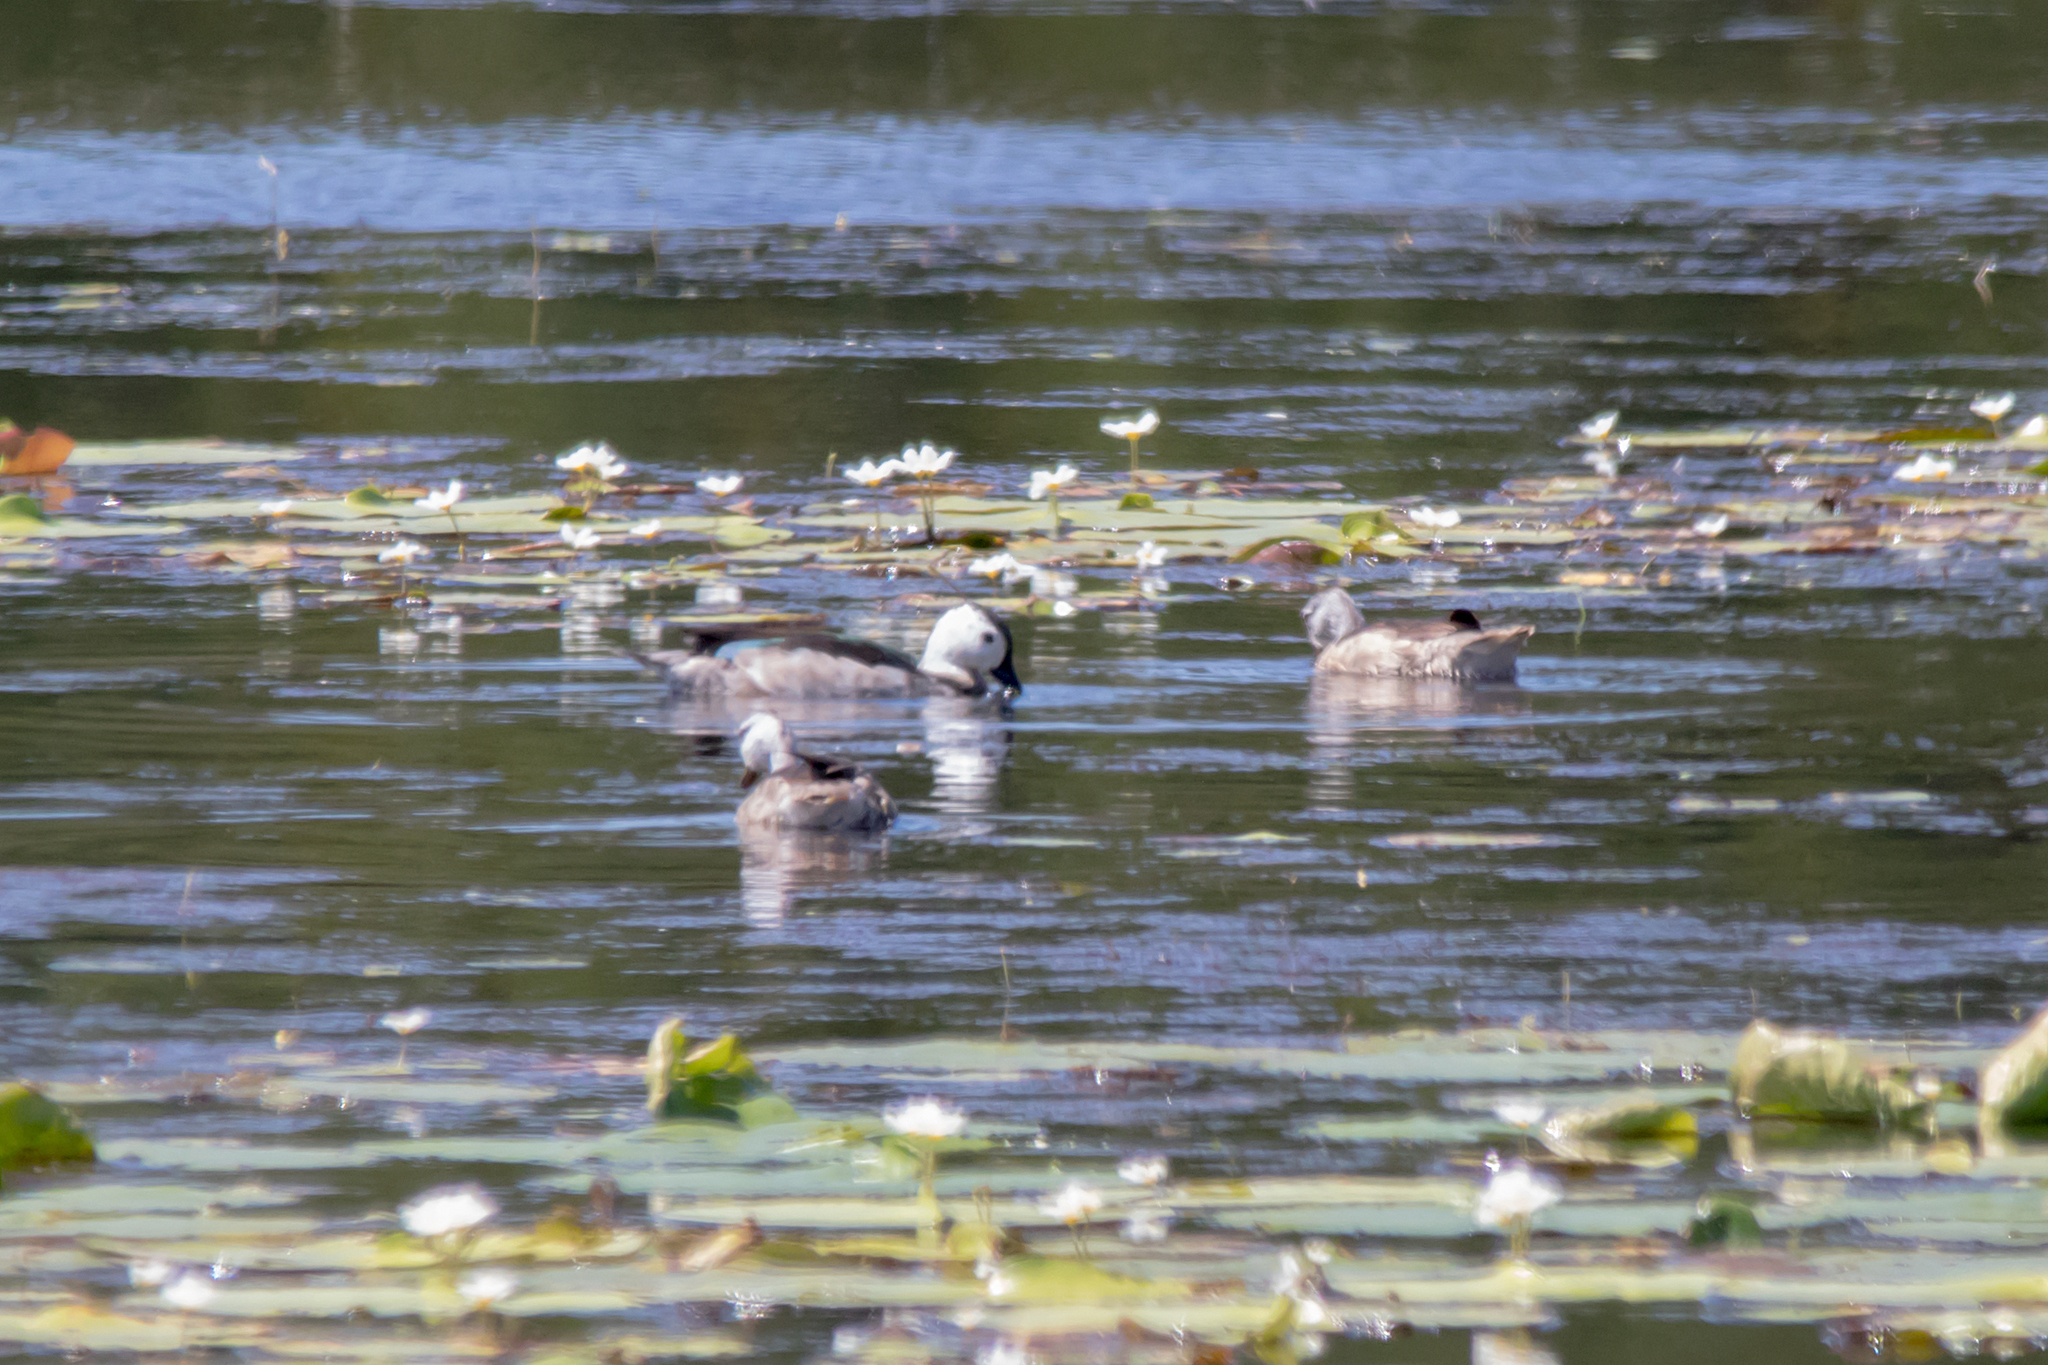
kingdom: Animalia
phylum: Chordata
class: Aves
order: Anseriformes
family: Anatidae
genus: Nettapus
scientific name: Nettapus coromandelianus
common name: Cotton pygmy-goose
